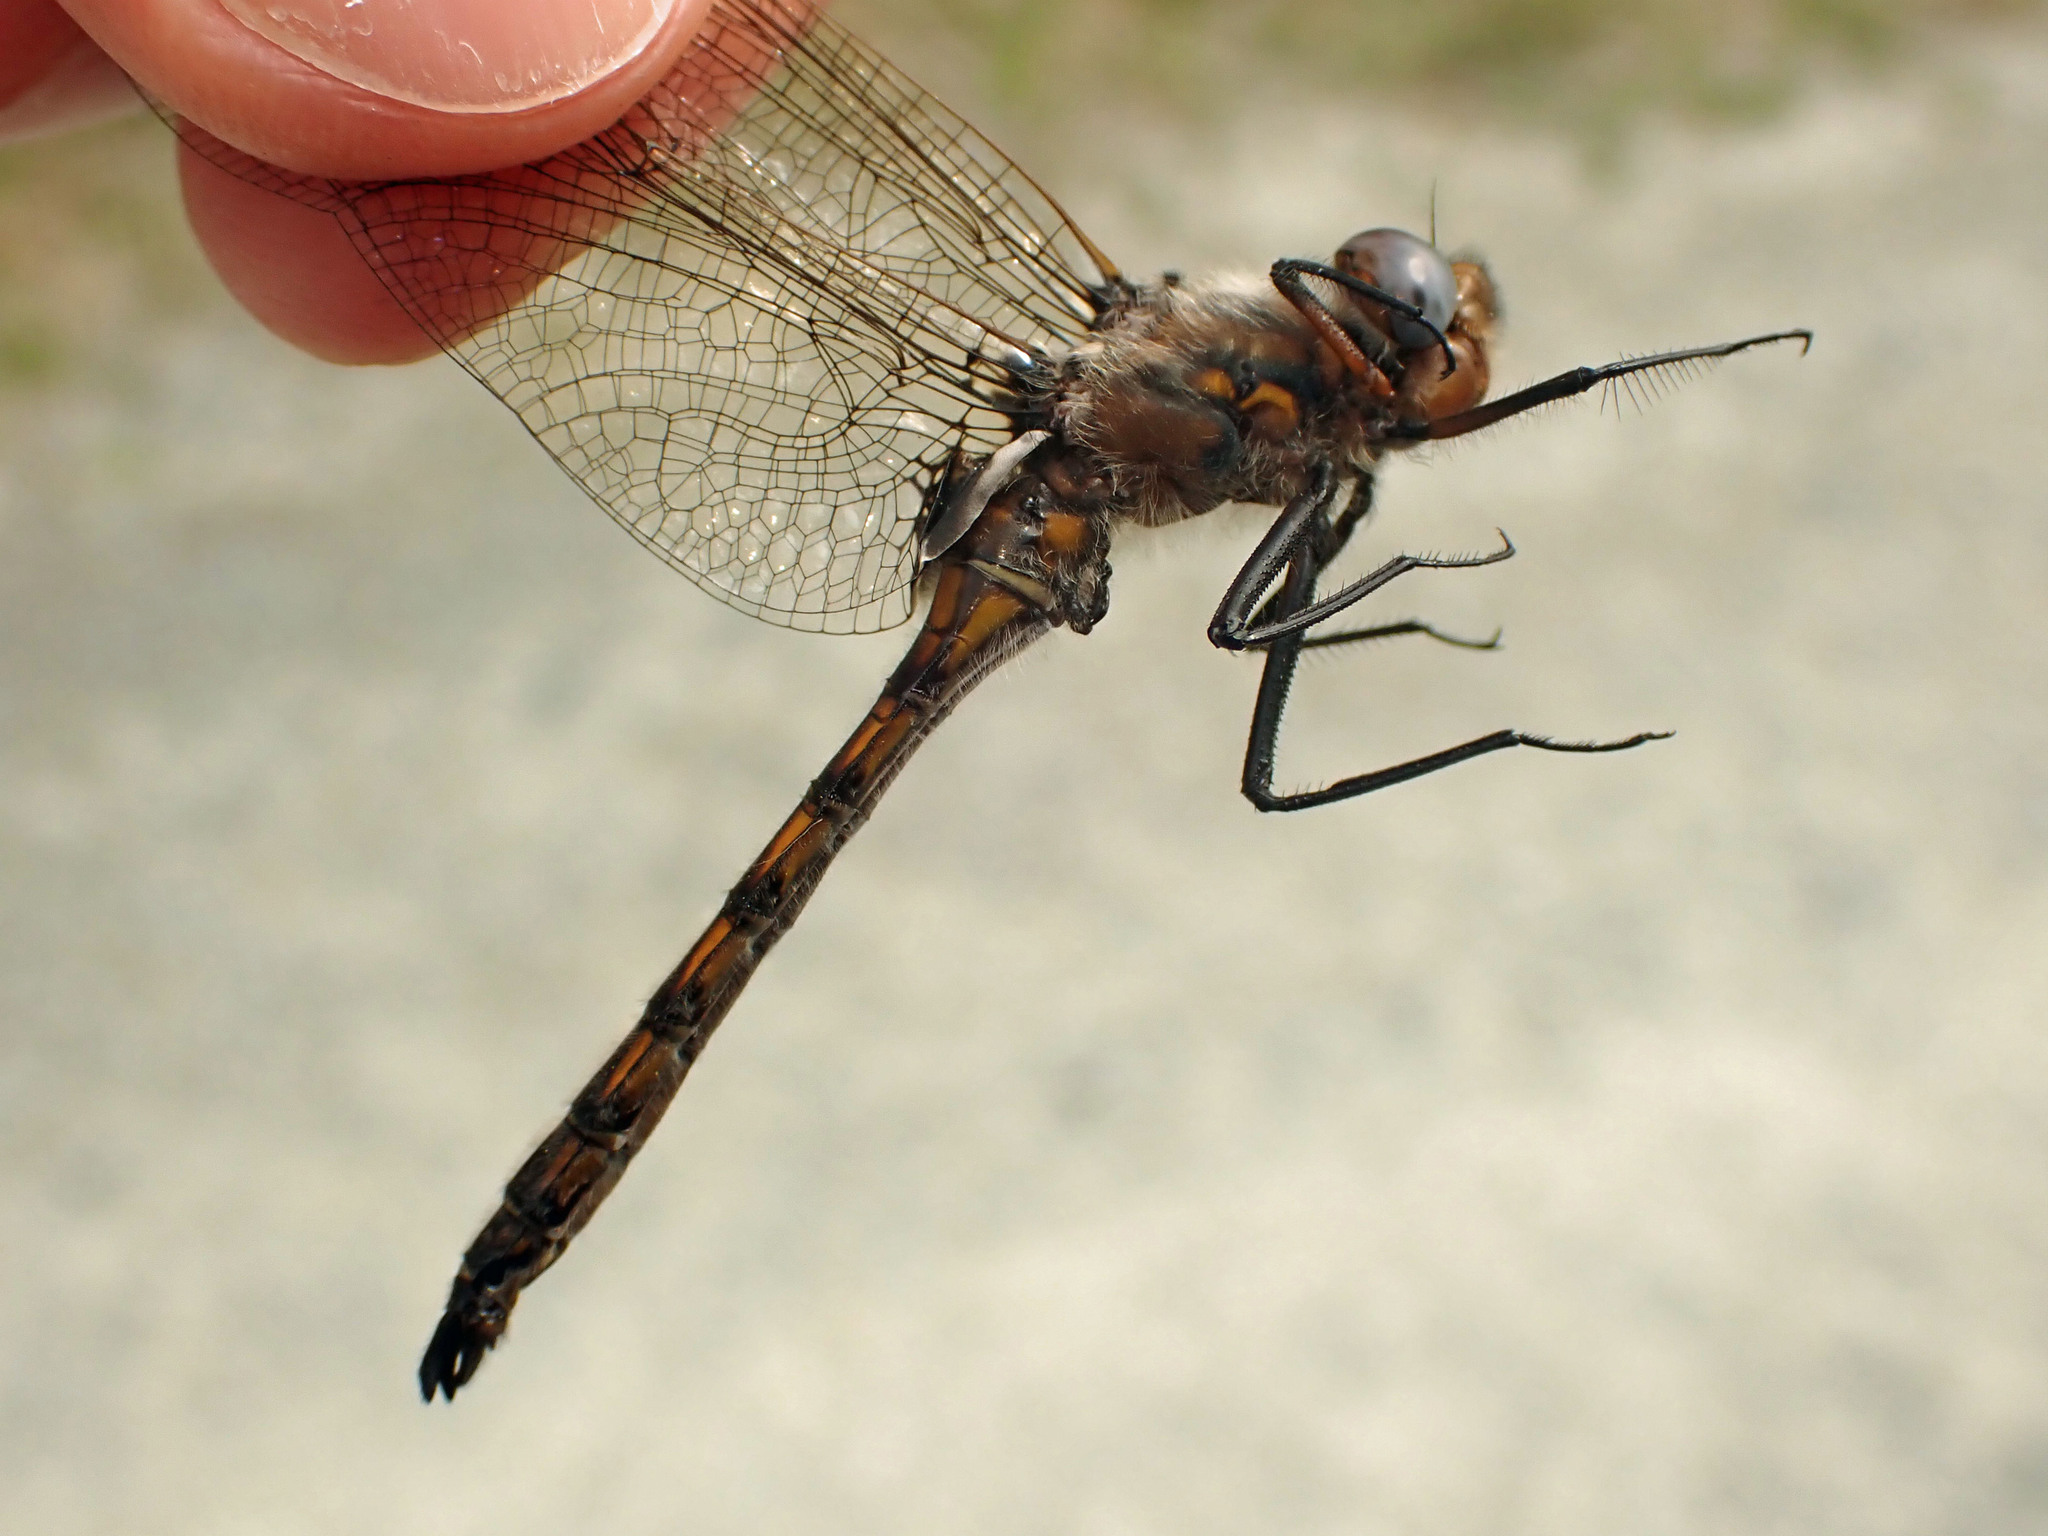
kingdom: Animalia
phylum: Arthropoda
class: Insecta
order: Odonata
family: Corduliidae
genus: Epitheca
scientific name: Epitheca canis
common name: Beaverpond baskettail
